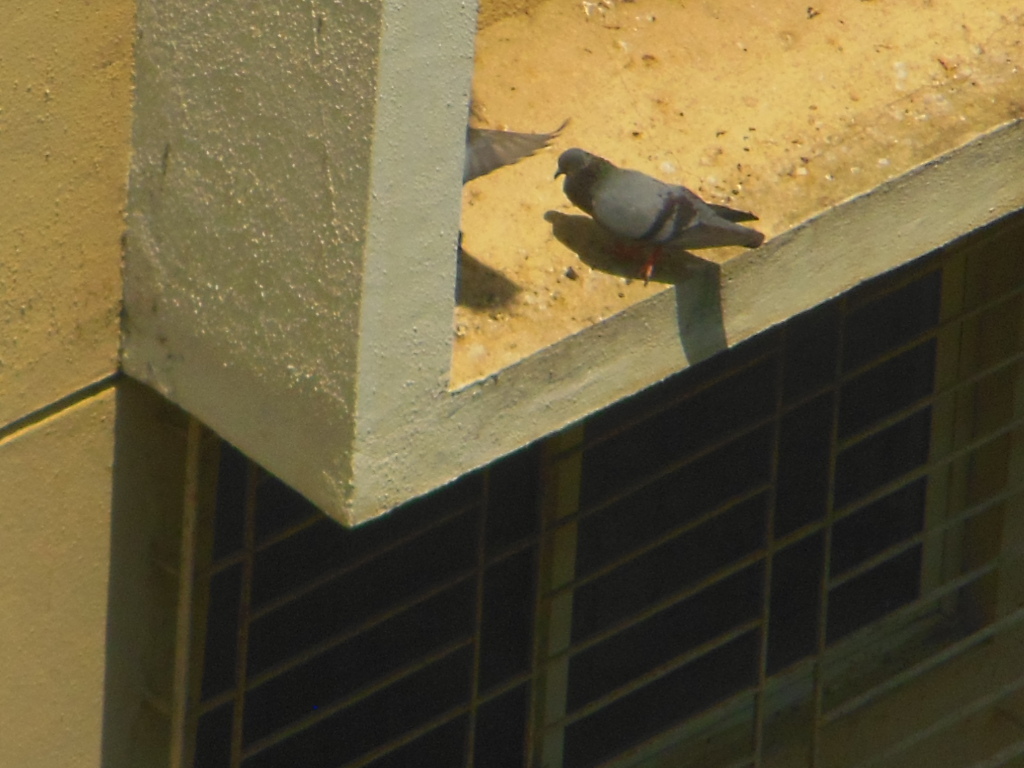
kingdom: Animalia
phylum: Chordata
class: Aves
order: Columbiformes
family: Columbidae
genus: Columba
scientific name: Columba livia
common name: Rock pigeon
